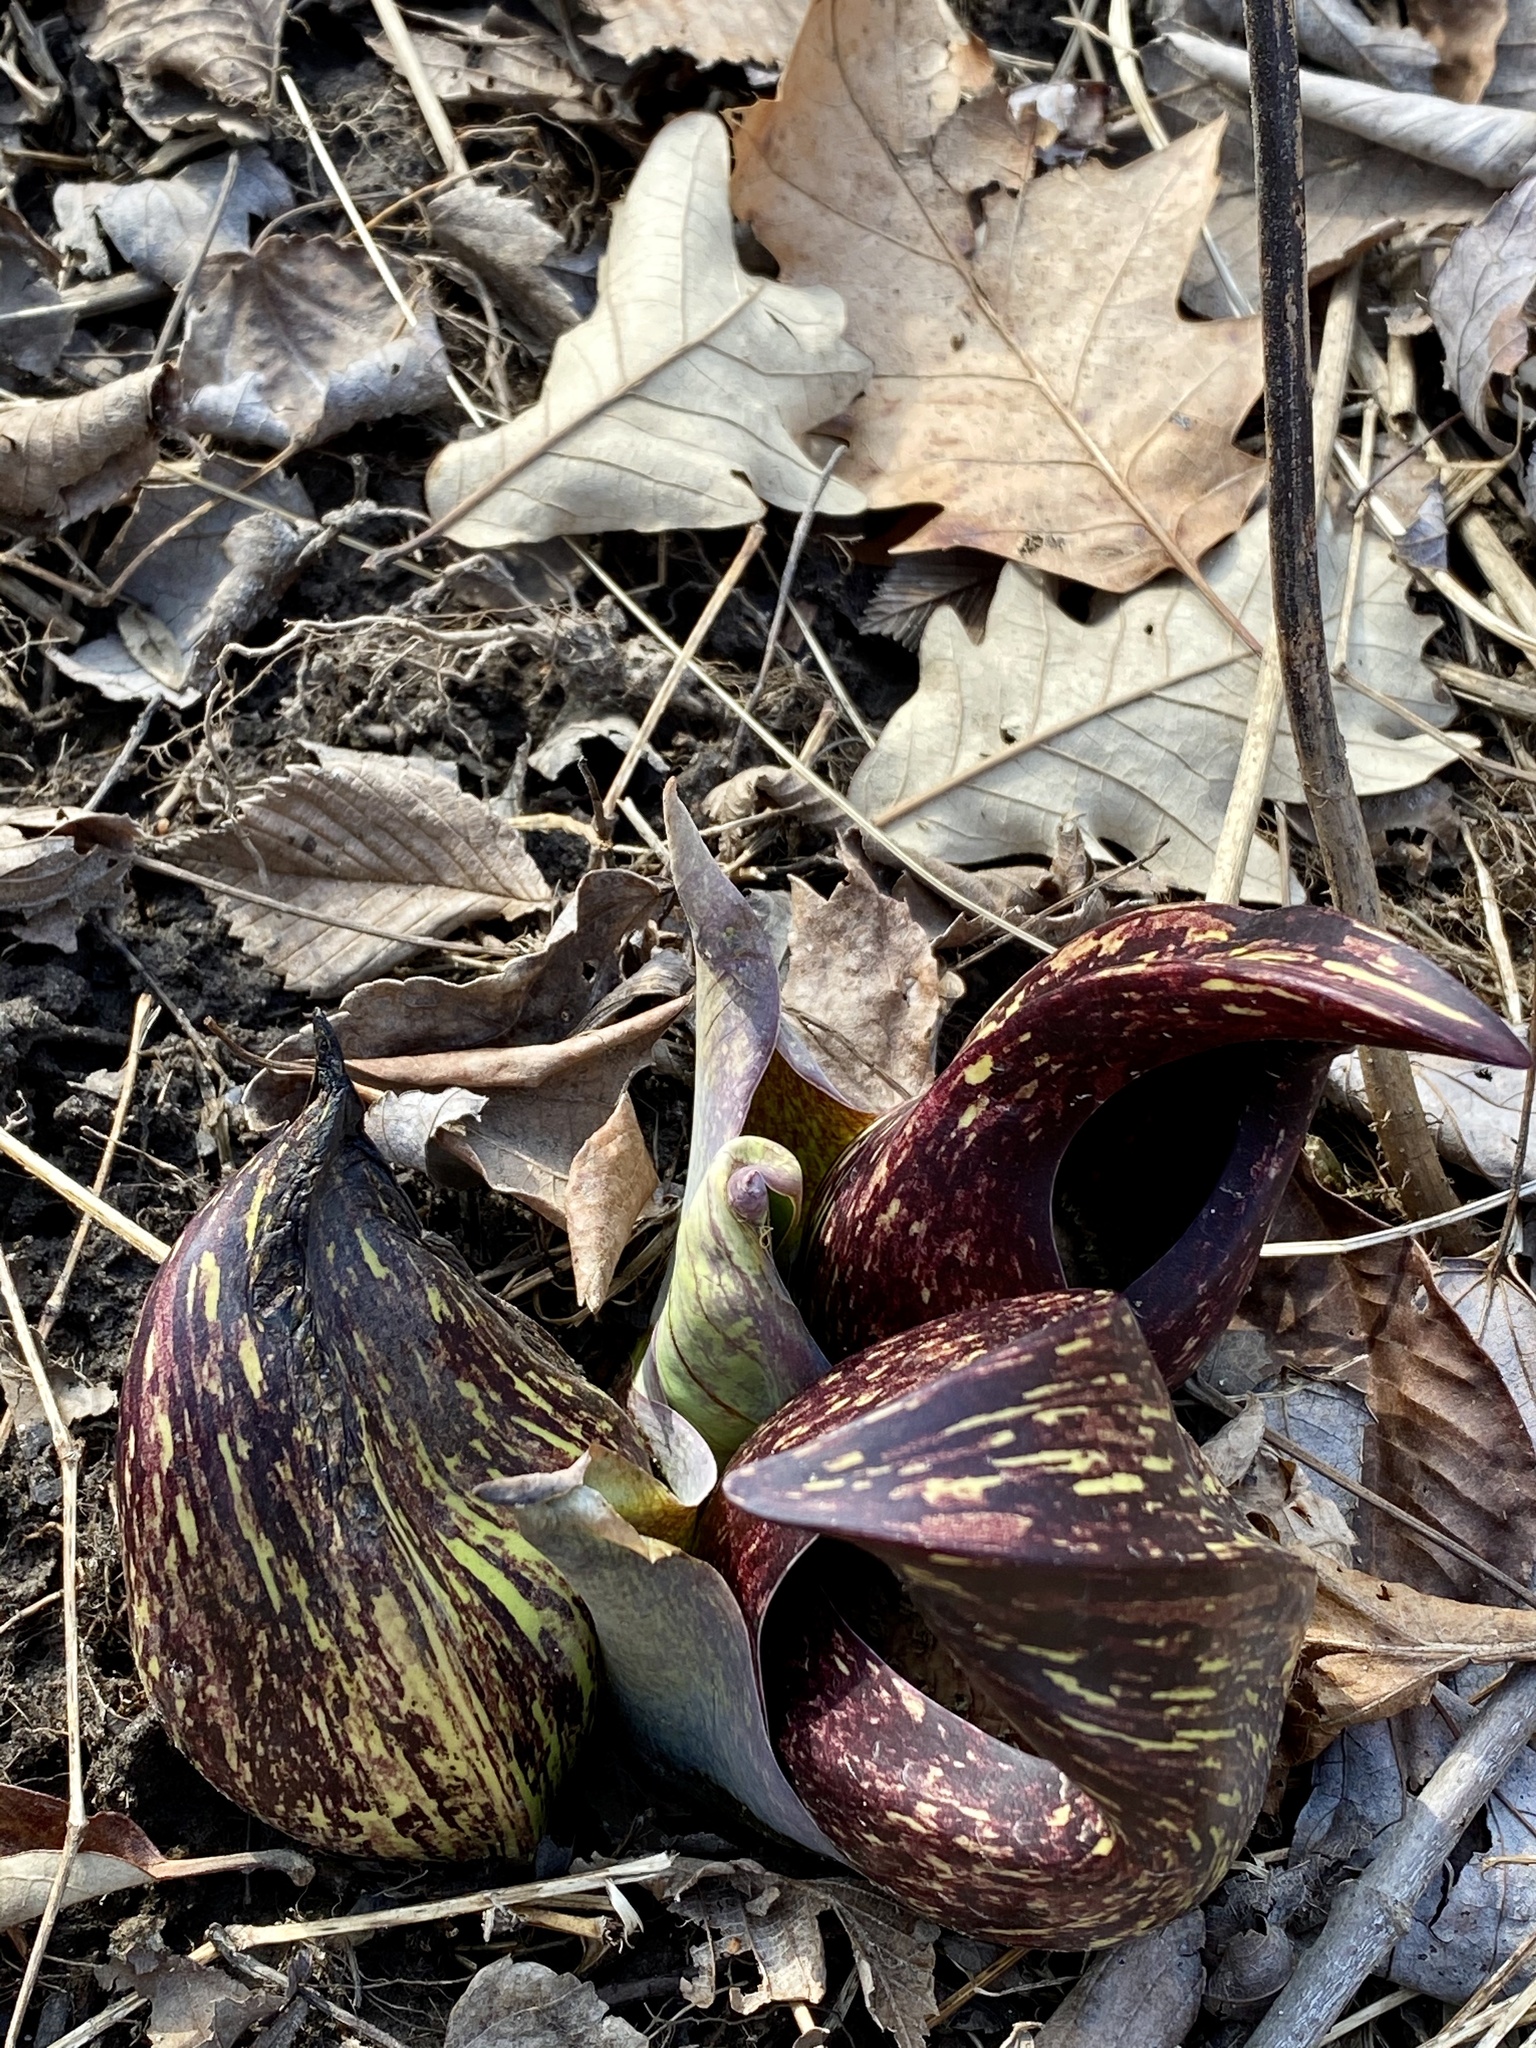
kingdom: Plantae
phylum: Tracheophyta
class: Liliopsida
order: Alismatales
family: Araceae
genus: Symplocarpus
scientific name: Symplocarpus foetidus
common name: Eastern skunk cabbage
